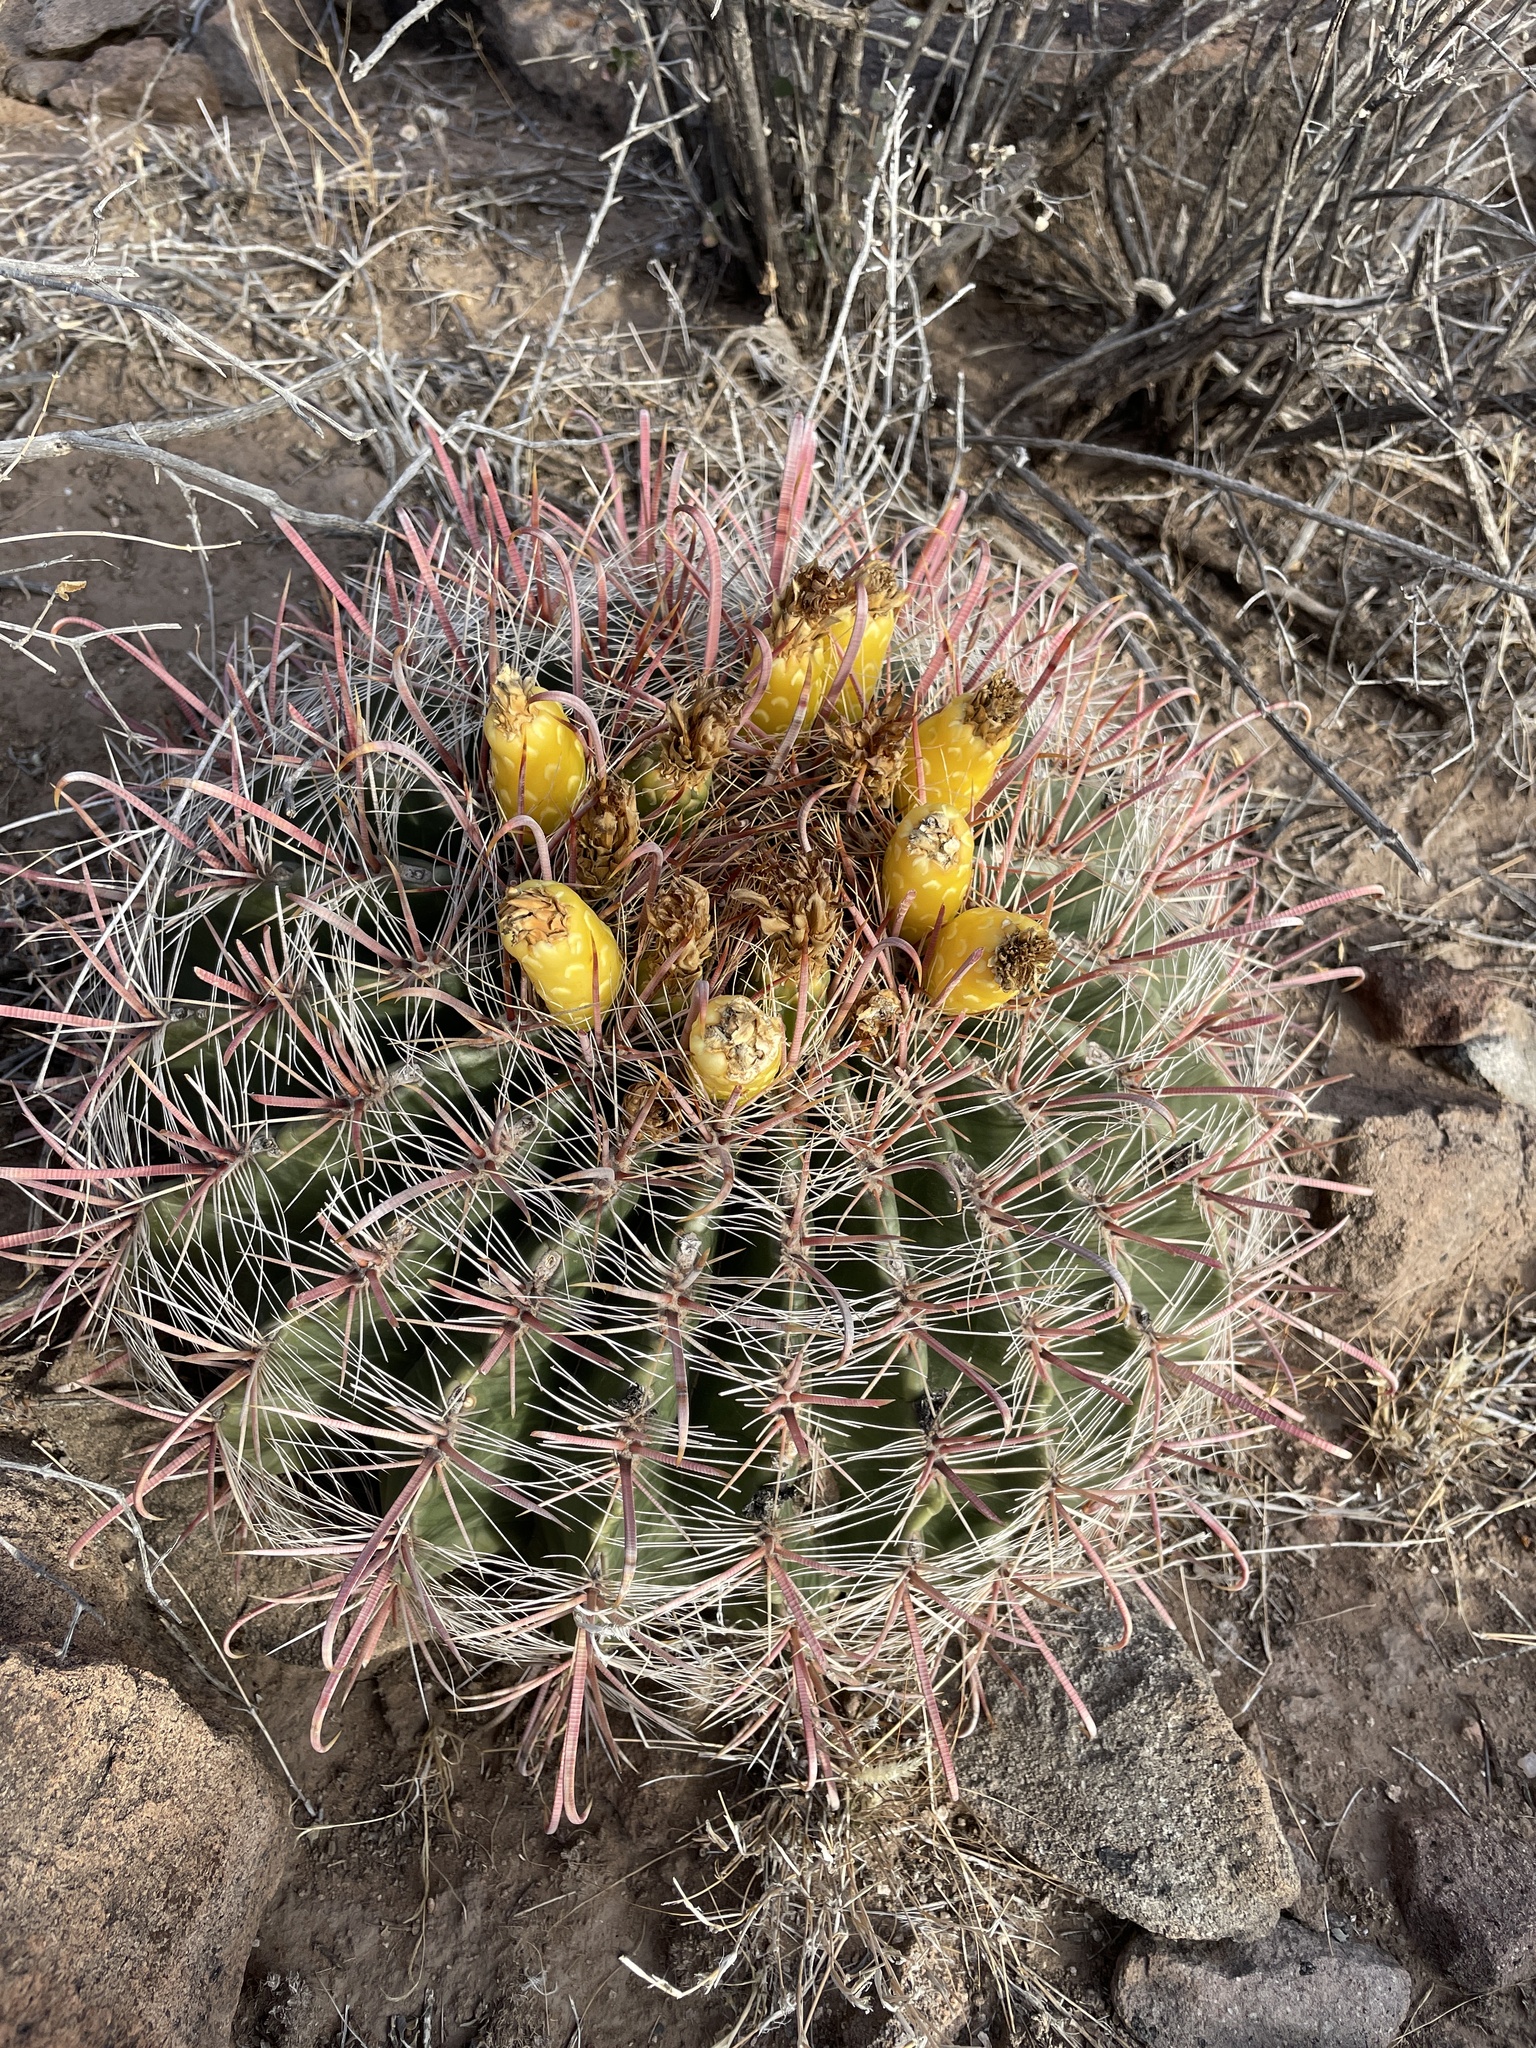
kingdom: Plantae
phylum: Tracheophyta
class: Magnoliopsida
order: Caryophyllales
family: Cactaceae
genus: Ferocactus
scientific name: Ferocactus wislizeni
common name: Candy barrel cactus
